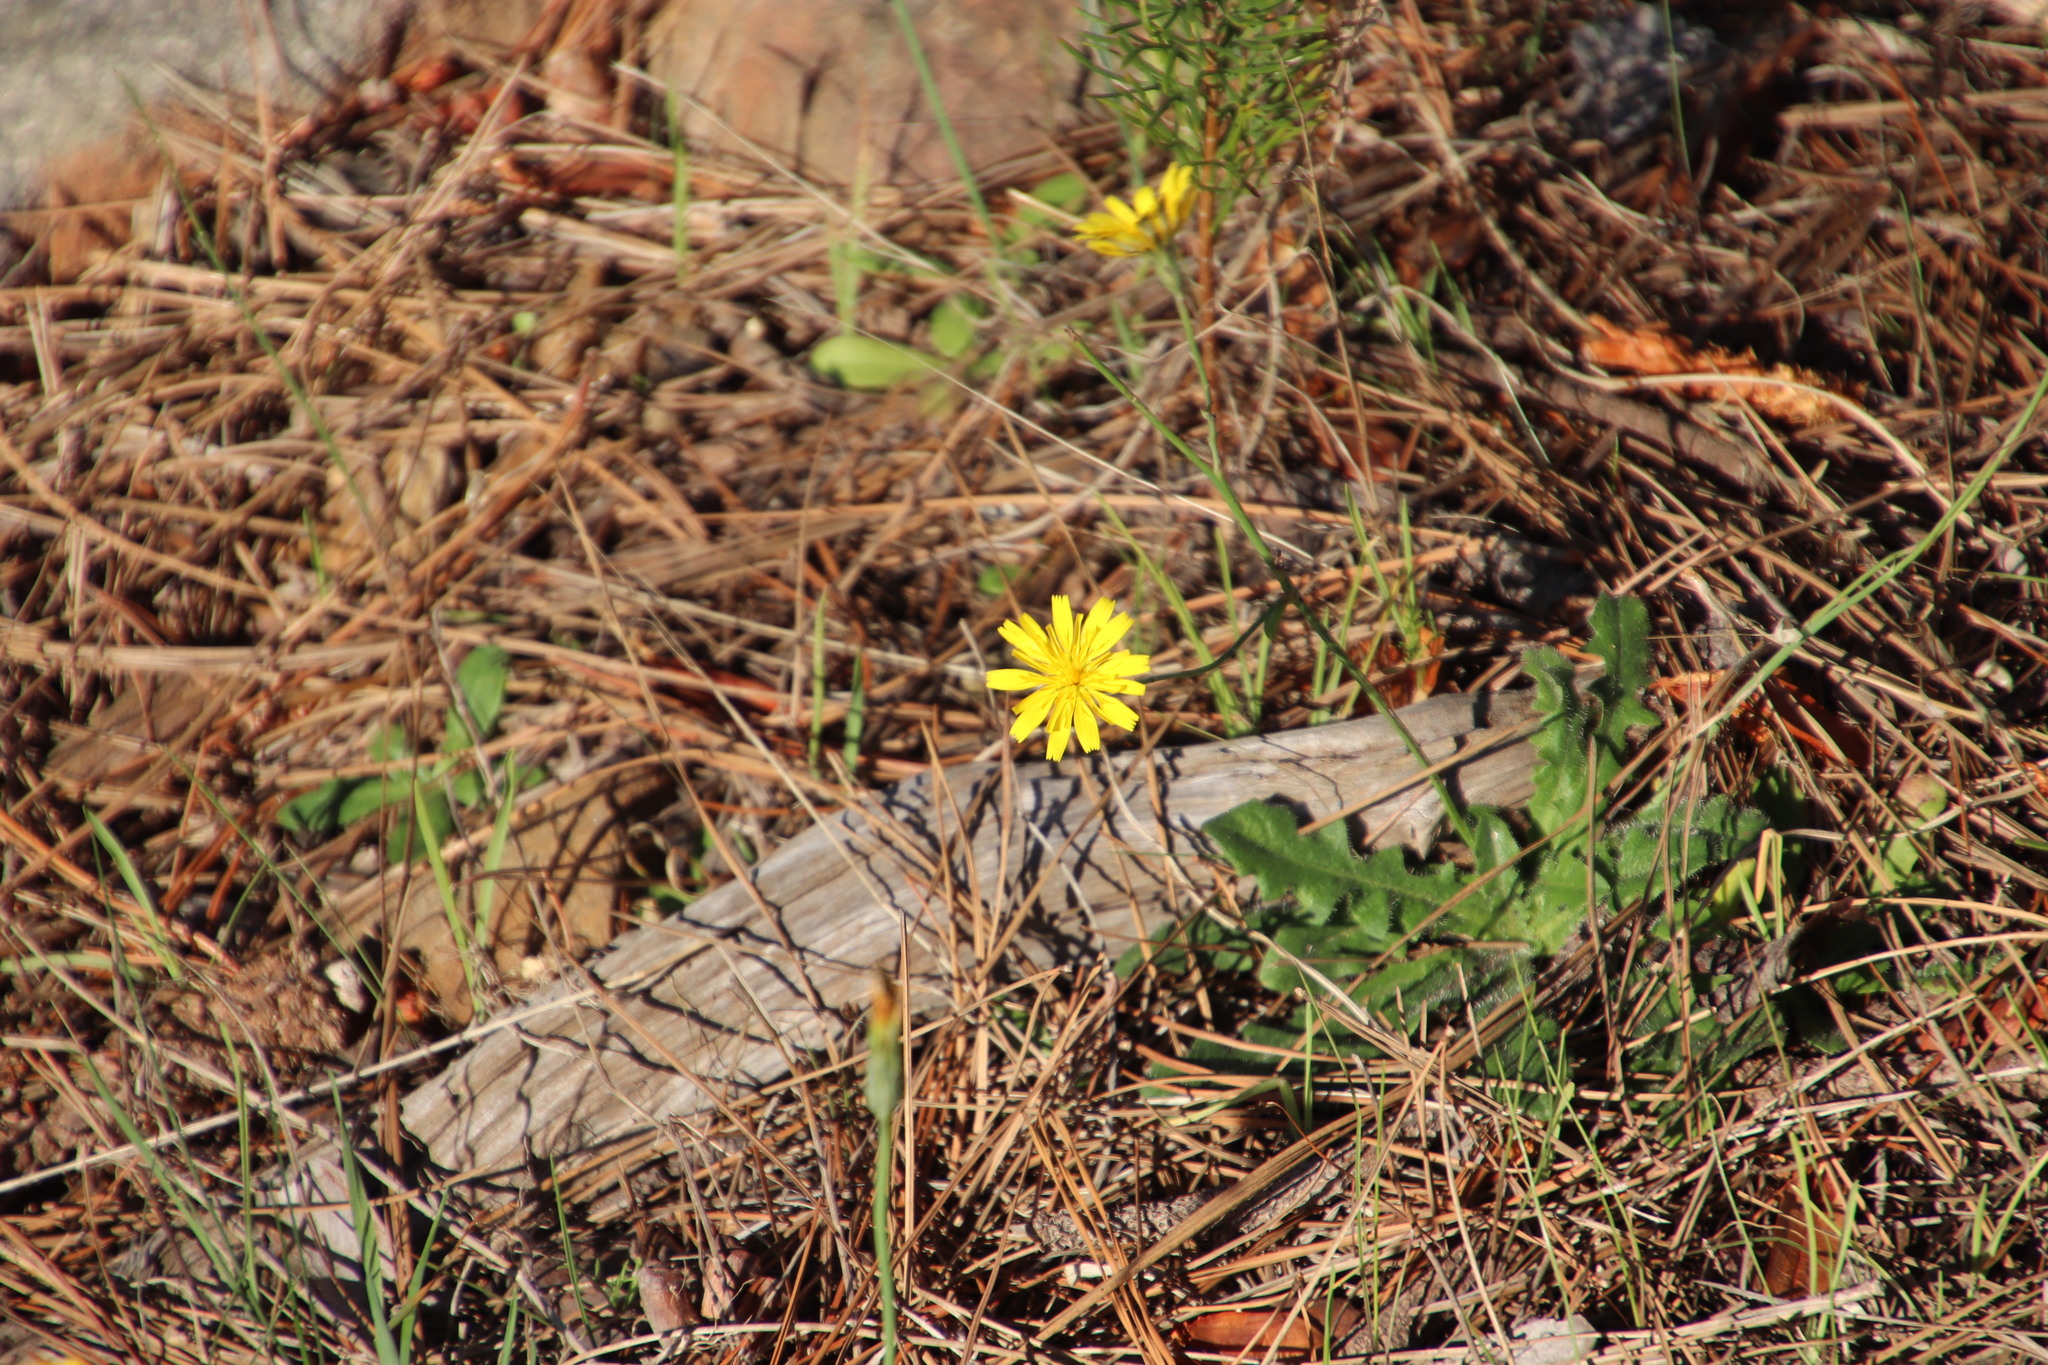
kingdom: Plantae
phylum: Tracheophyta
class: Magnoliopsida
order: Asterales
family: Asteraceae
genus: Hypochaeris
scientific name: Hypochaeris radicata
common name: Flatweed
